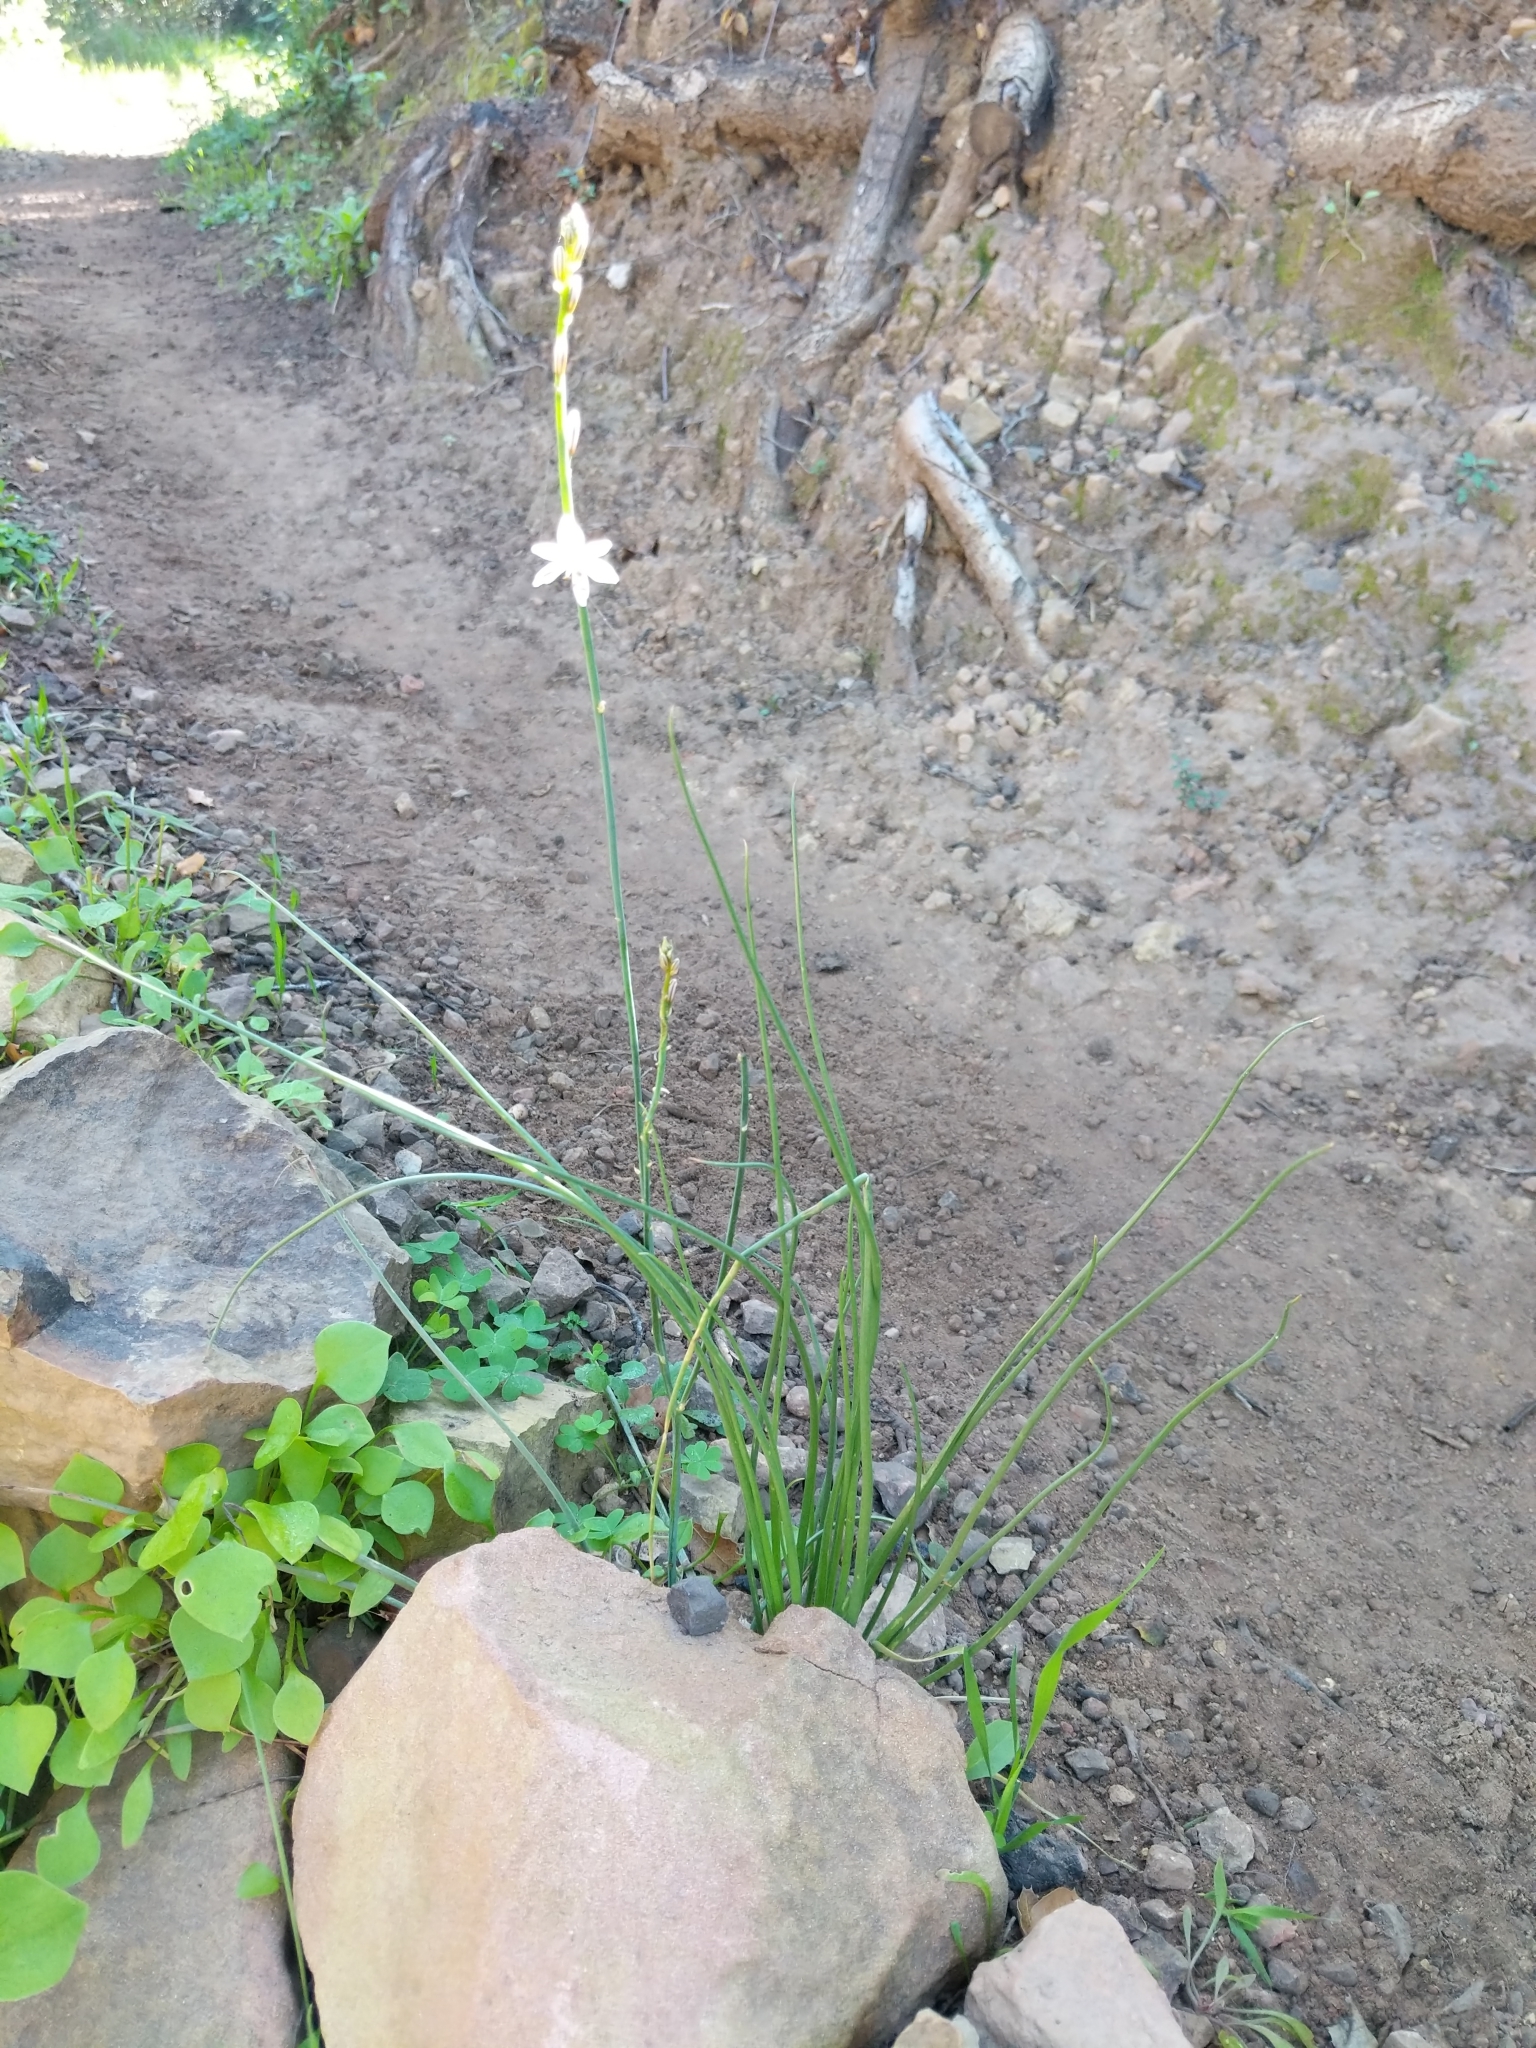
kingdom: Plantae
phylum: Tracheophyta
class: Liliopsida
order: Asparagales
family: Asphodelaceae
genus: Asphodelus
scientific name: Asphodelus fistulosus
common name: Onionweed
